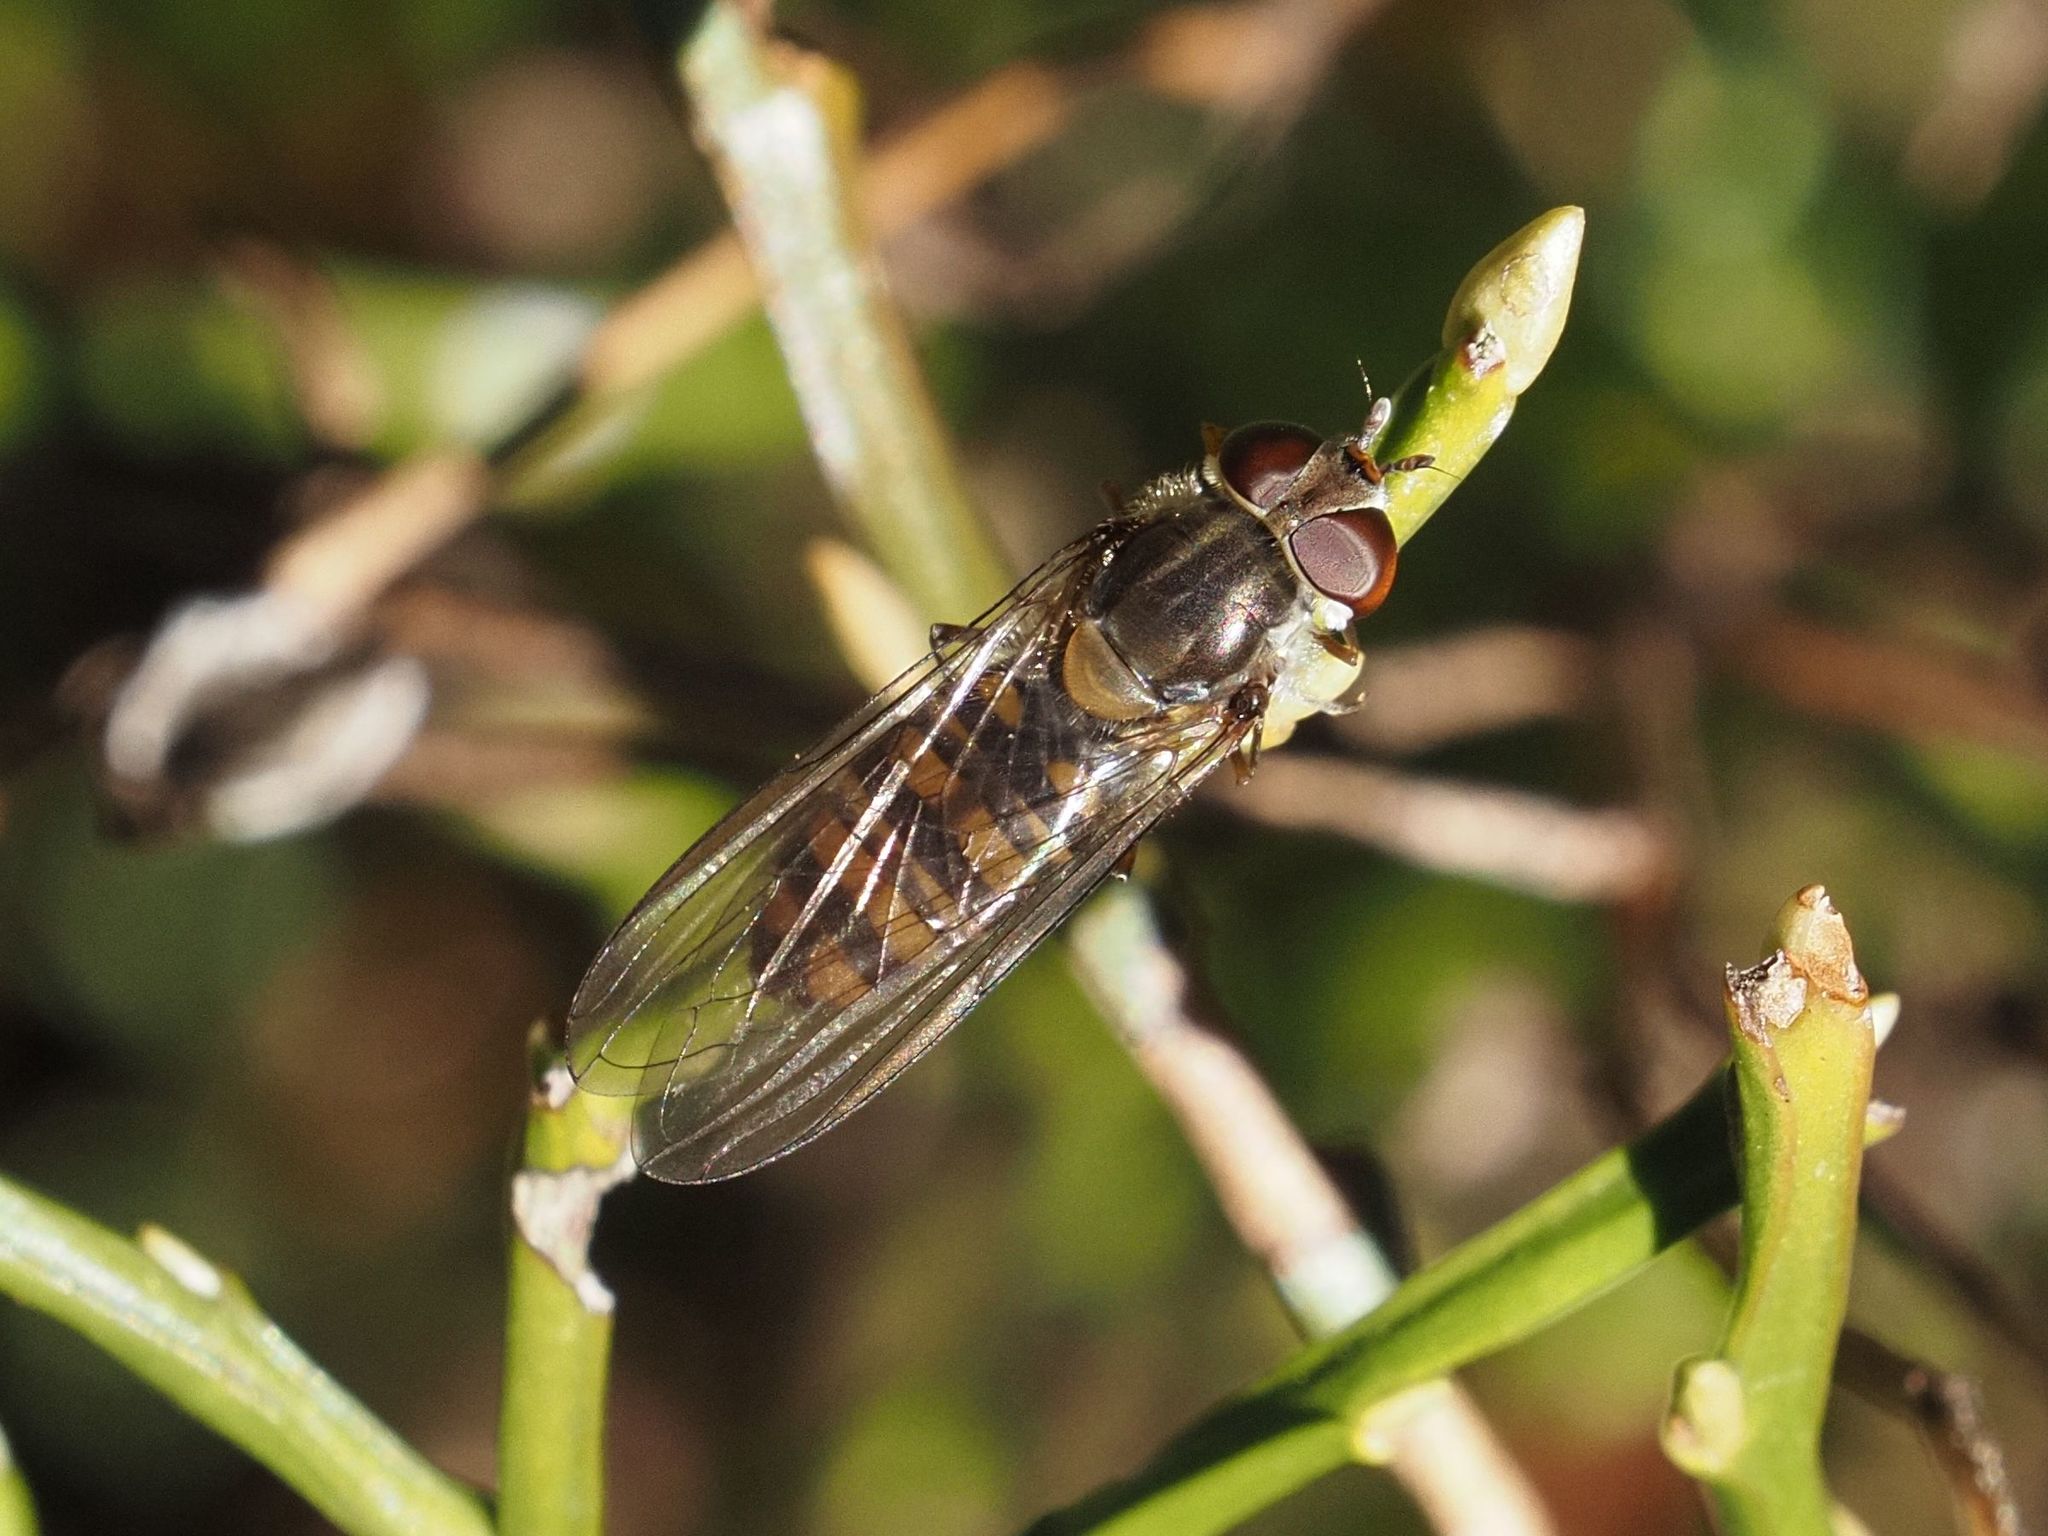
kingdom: Animalia
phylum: Arthropoda
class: Insecta
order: Diptera
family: Syrphidae
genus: Episyrphus
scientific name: Episyrphus balteatus
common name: Marmalade hoverfly
